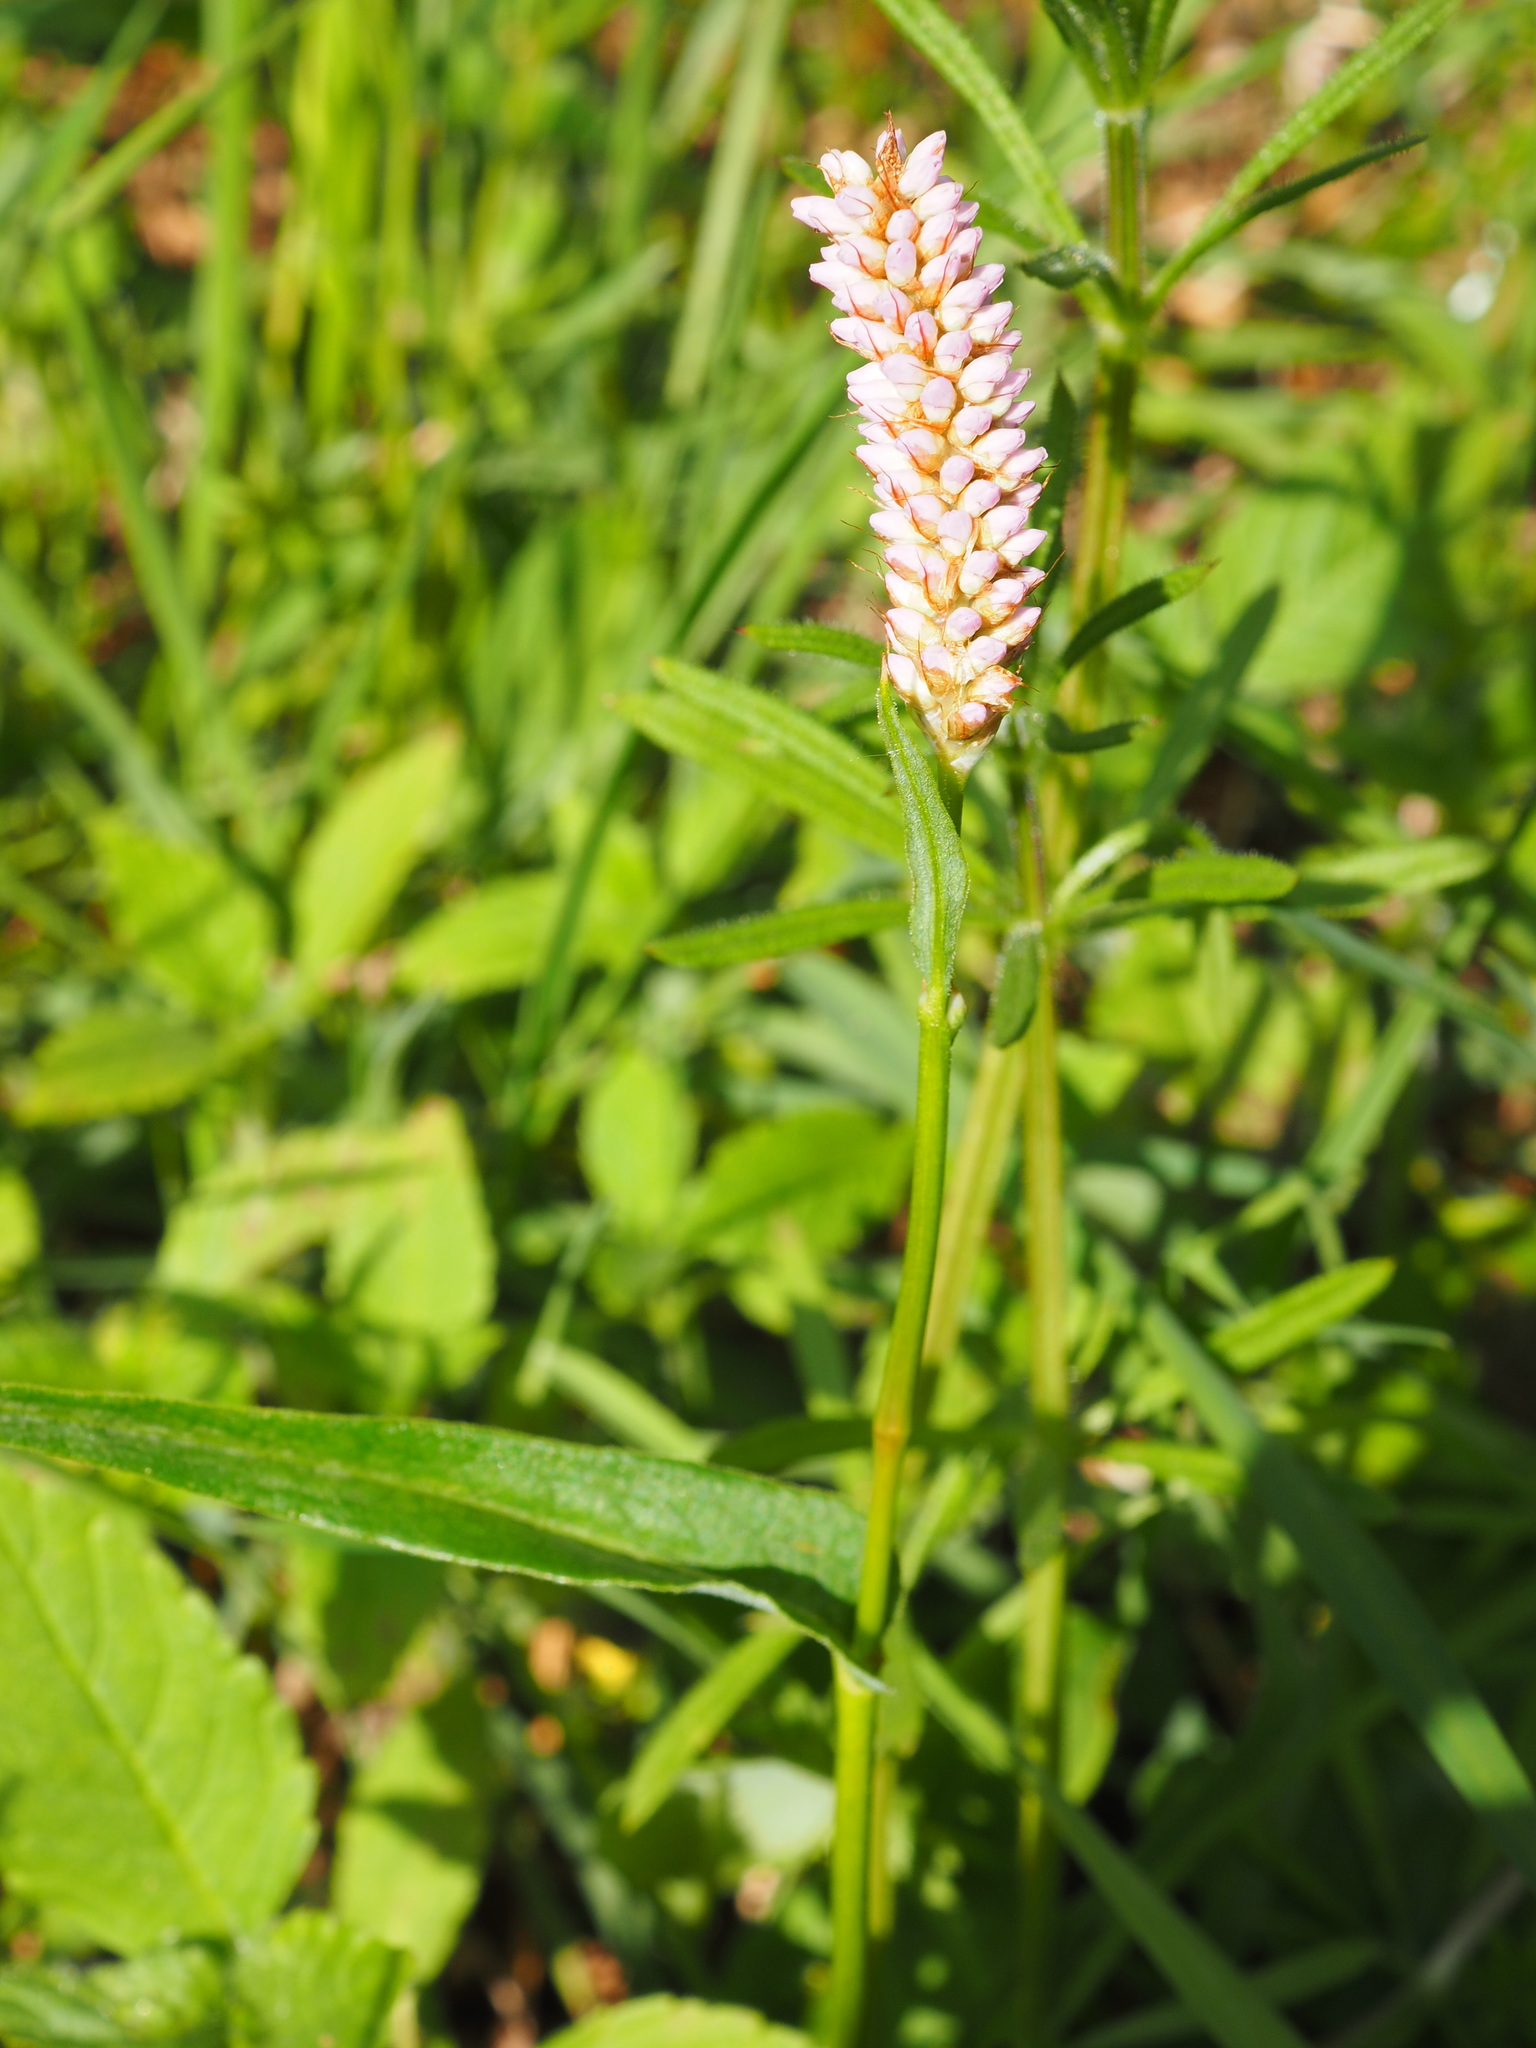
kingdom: Plantae
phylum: Tracheophyta
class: Magnoliopsida
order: Caryophyllales
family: Polygonaceae
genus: Bistorta
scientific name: Bistorta officinalis
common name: Common bistort
